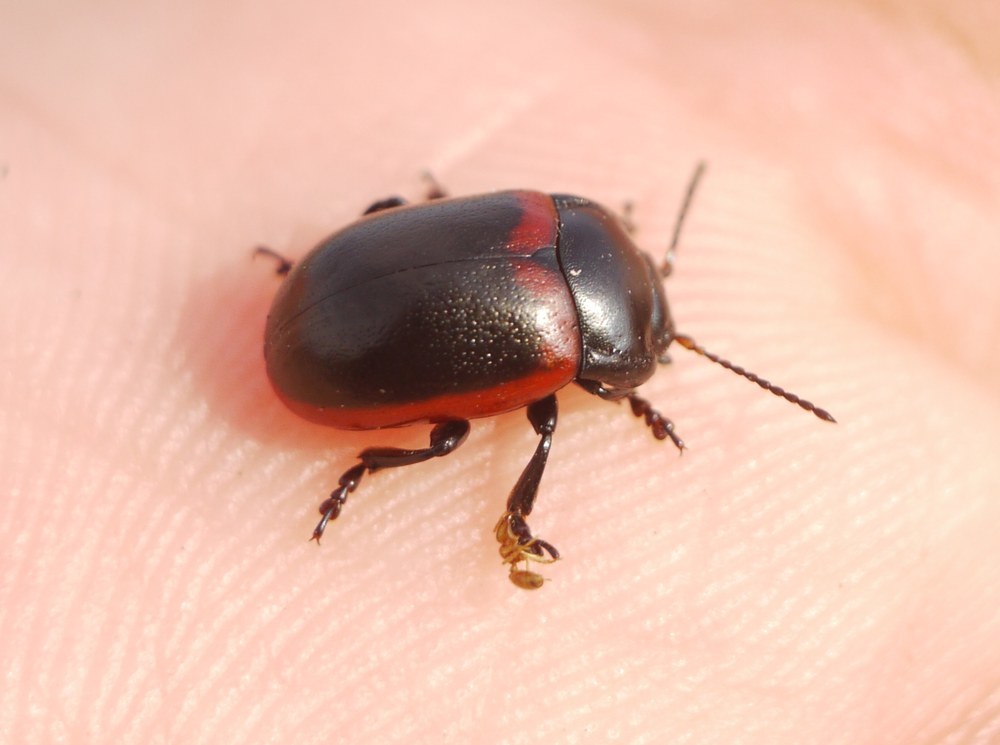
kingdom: Animalia
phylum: Arthropoda
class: Insecta
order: Coleoptera
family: Chrysomelidae
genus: Chrysolina
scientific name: Chrysolina limbata
